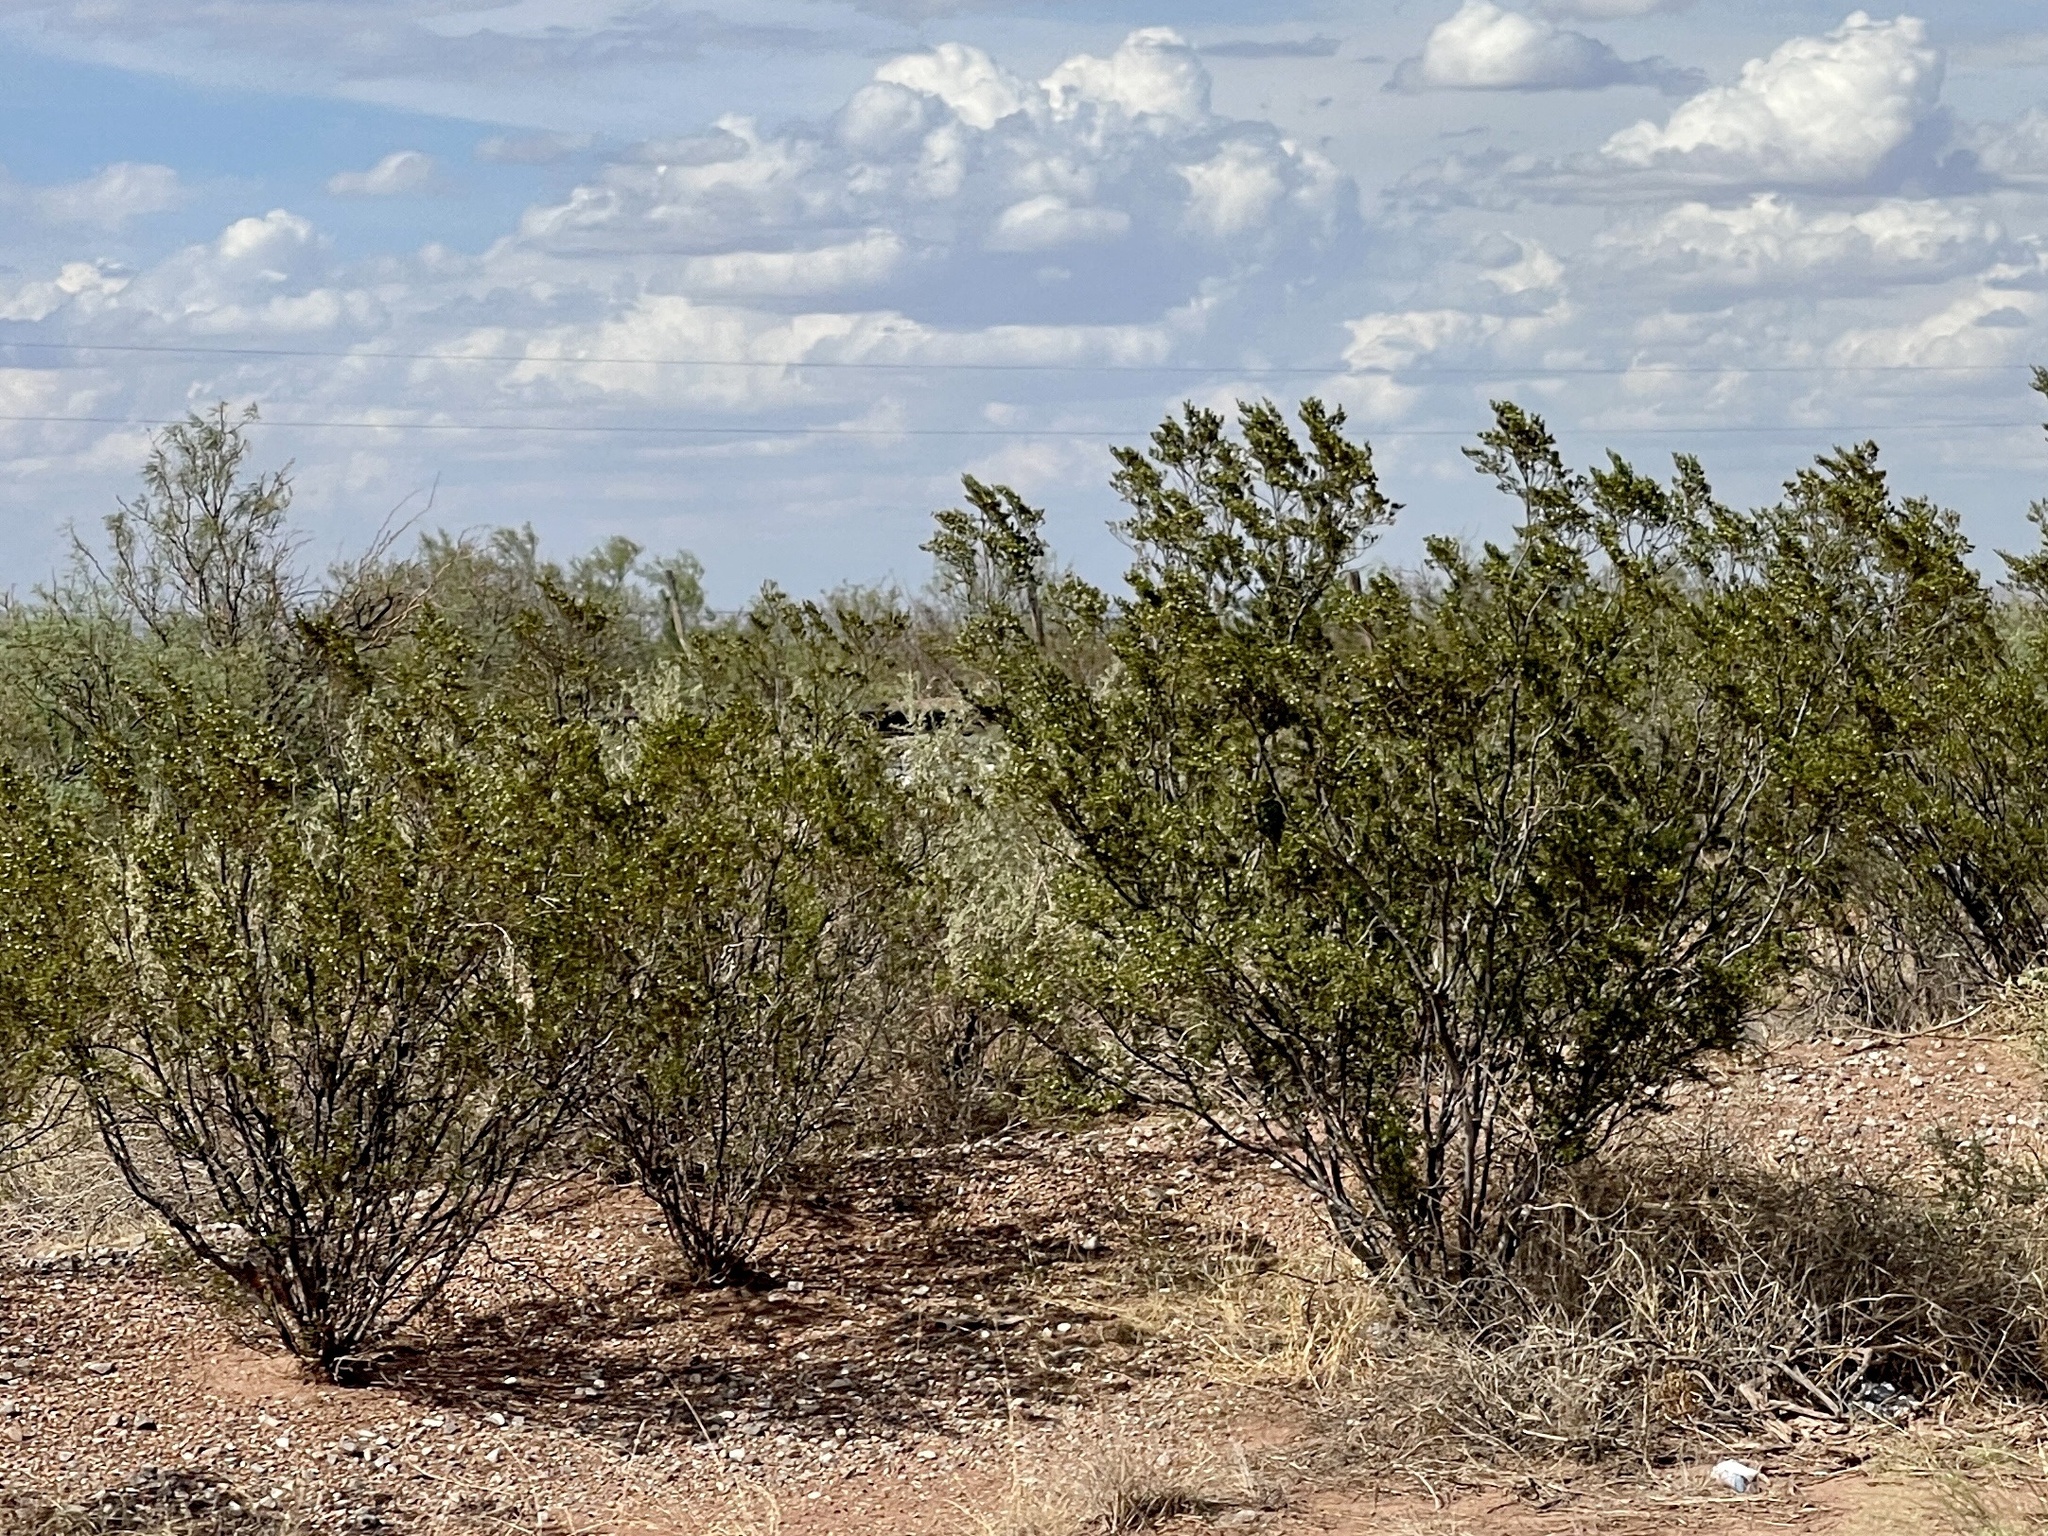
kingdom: Plantae
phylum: Tracheophyta
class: Magnoliopsida
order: Zygophyllales
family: Zygophyllaceae
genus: Larrea
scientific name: Larrea tridentata
